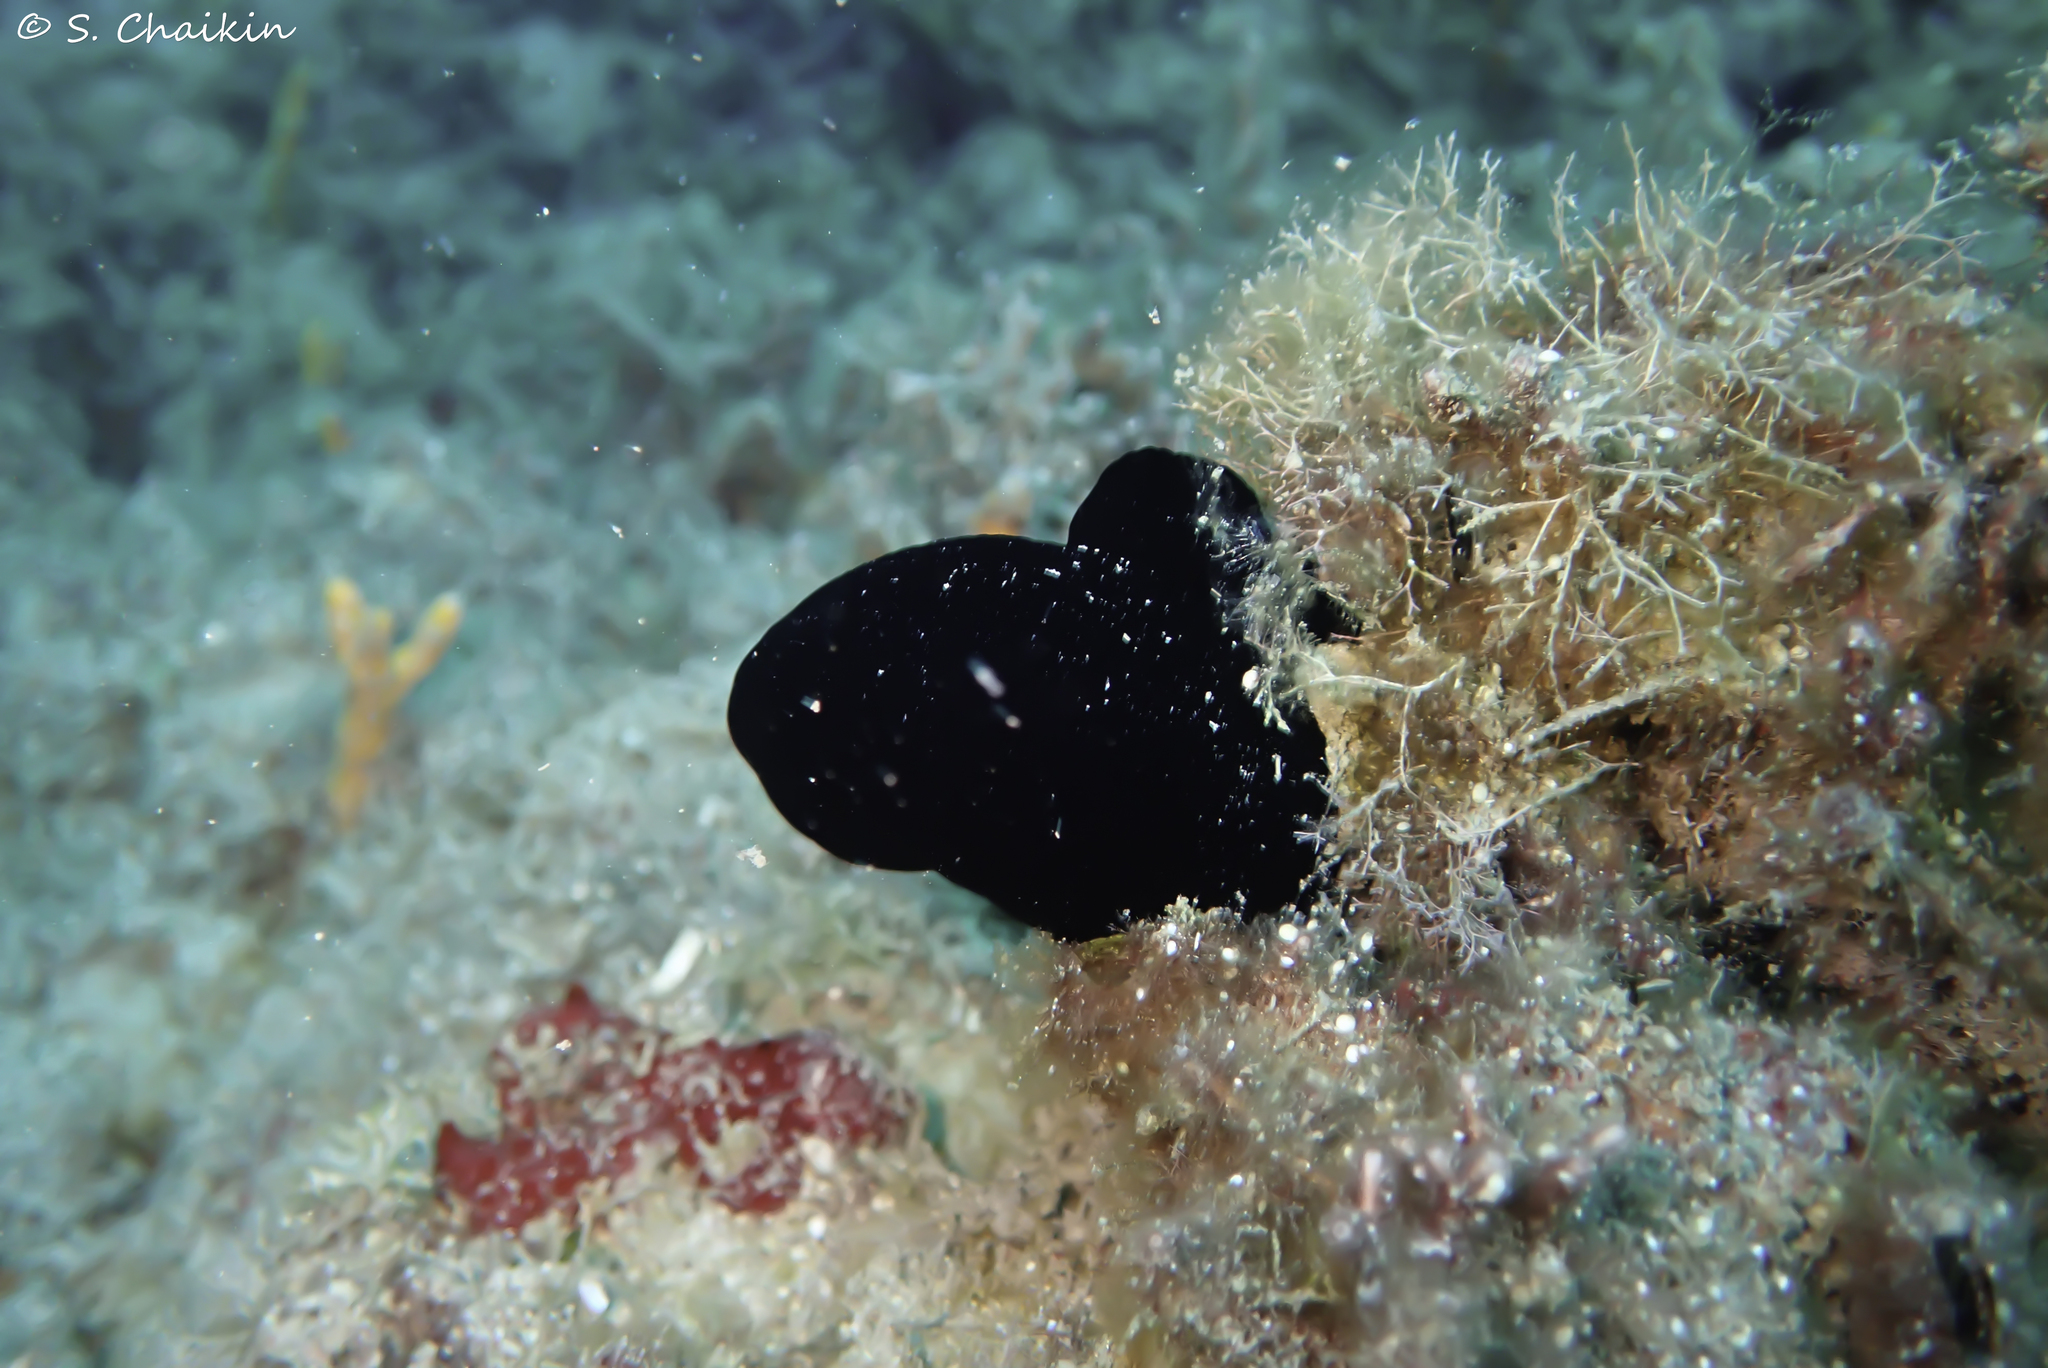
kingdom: Animalia
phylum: Chordata
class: Ascidiacea
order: Phlebobranchia
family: Ascidiidae
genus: Phallusia
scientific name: Phallusia nigra
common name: Black tunicate
